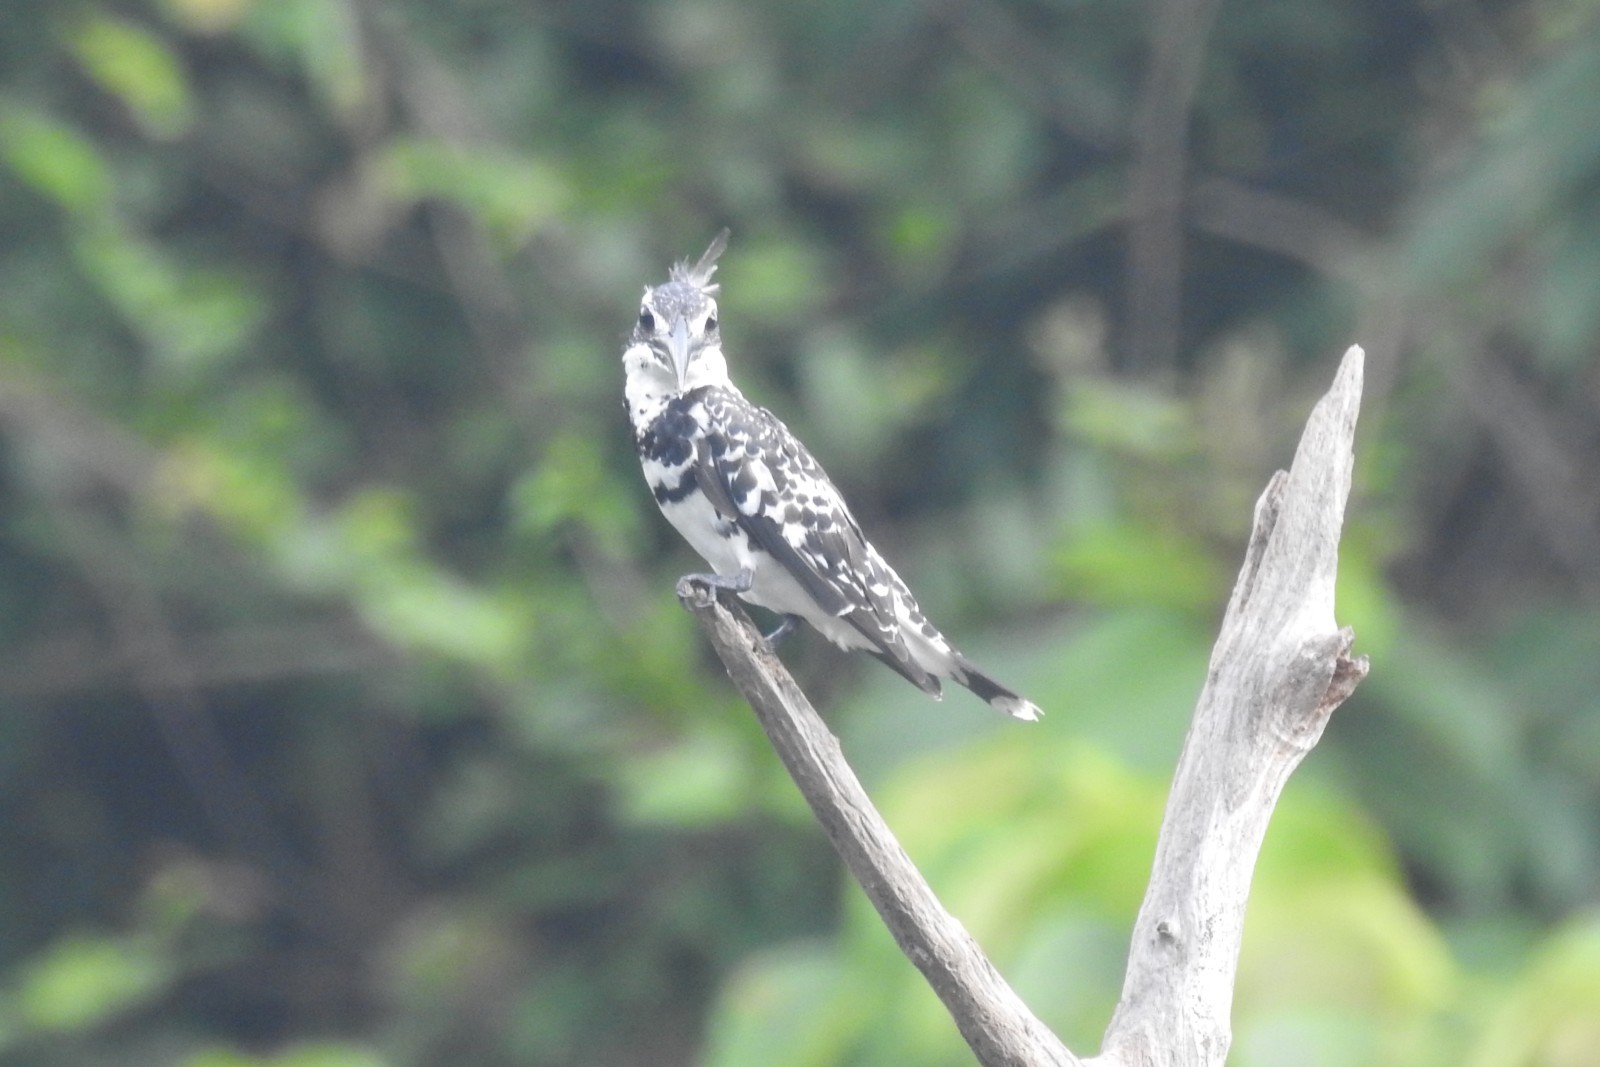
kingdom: Animalia
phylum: Chordata
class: Aves
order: Coraciiformes
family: Alcedinidae
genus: Ceryle
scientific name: Ceryle rudis
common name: Pied kingfisher
